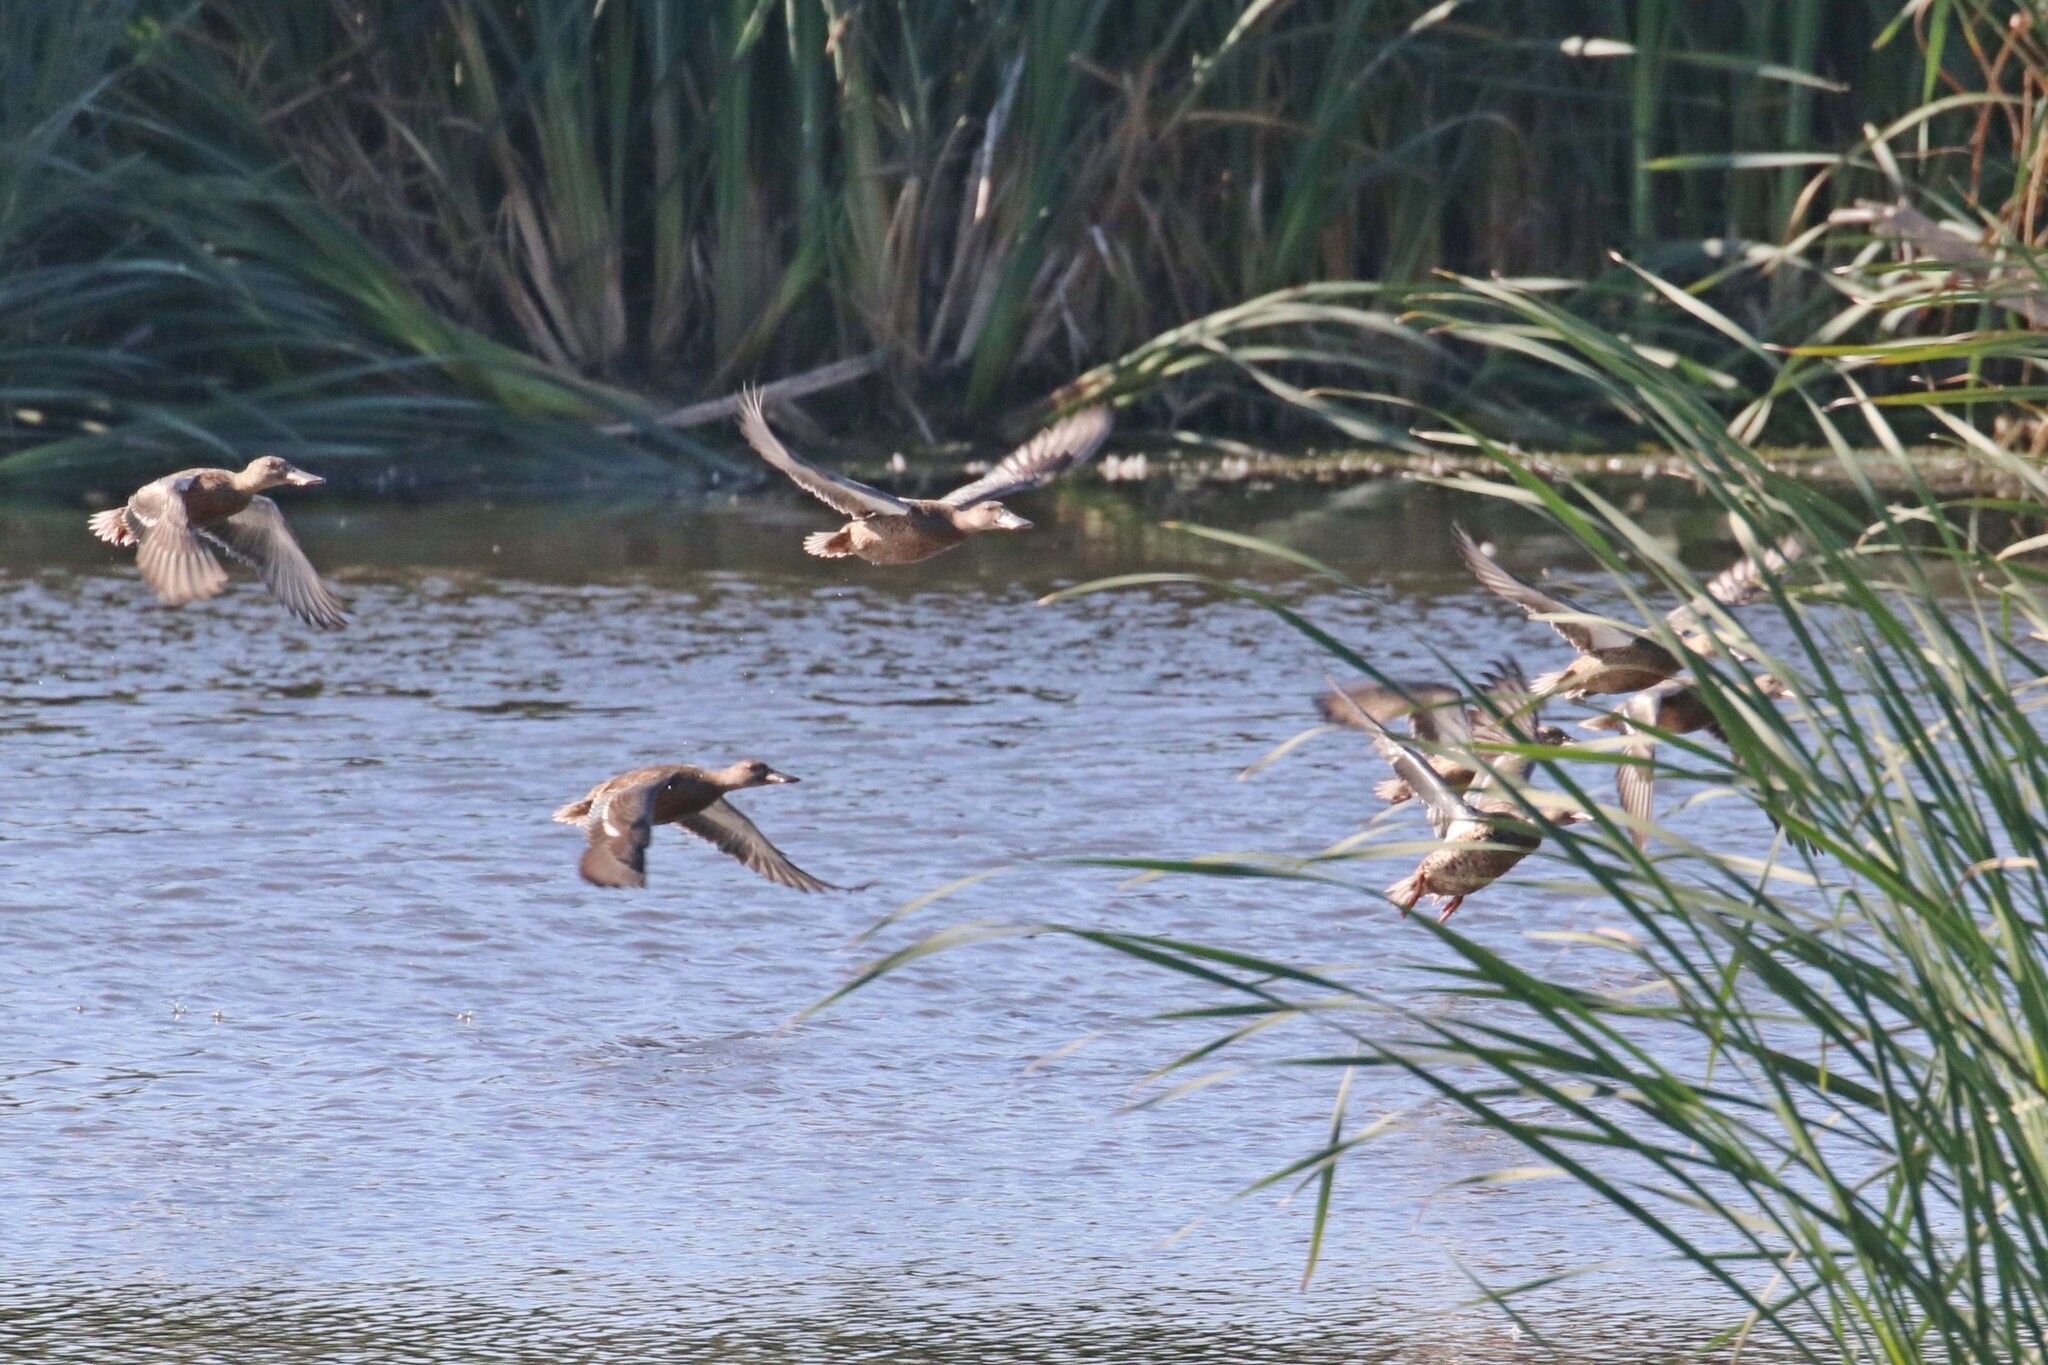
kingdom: Animalia
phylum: Chordata
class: Aves
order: Anseriformes
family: Anatidae
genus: Spatula
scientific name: Spatula clypeata
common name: Northern shoveler
